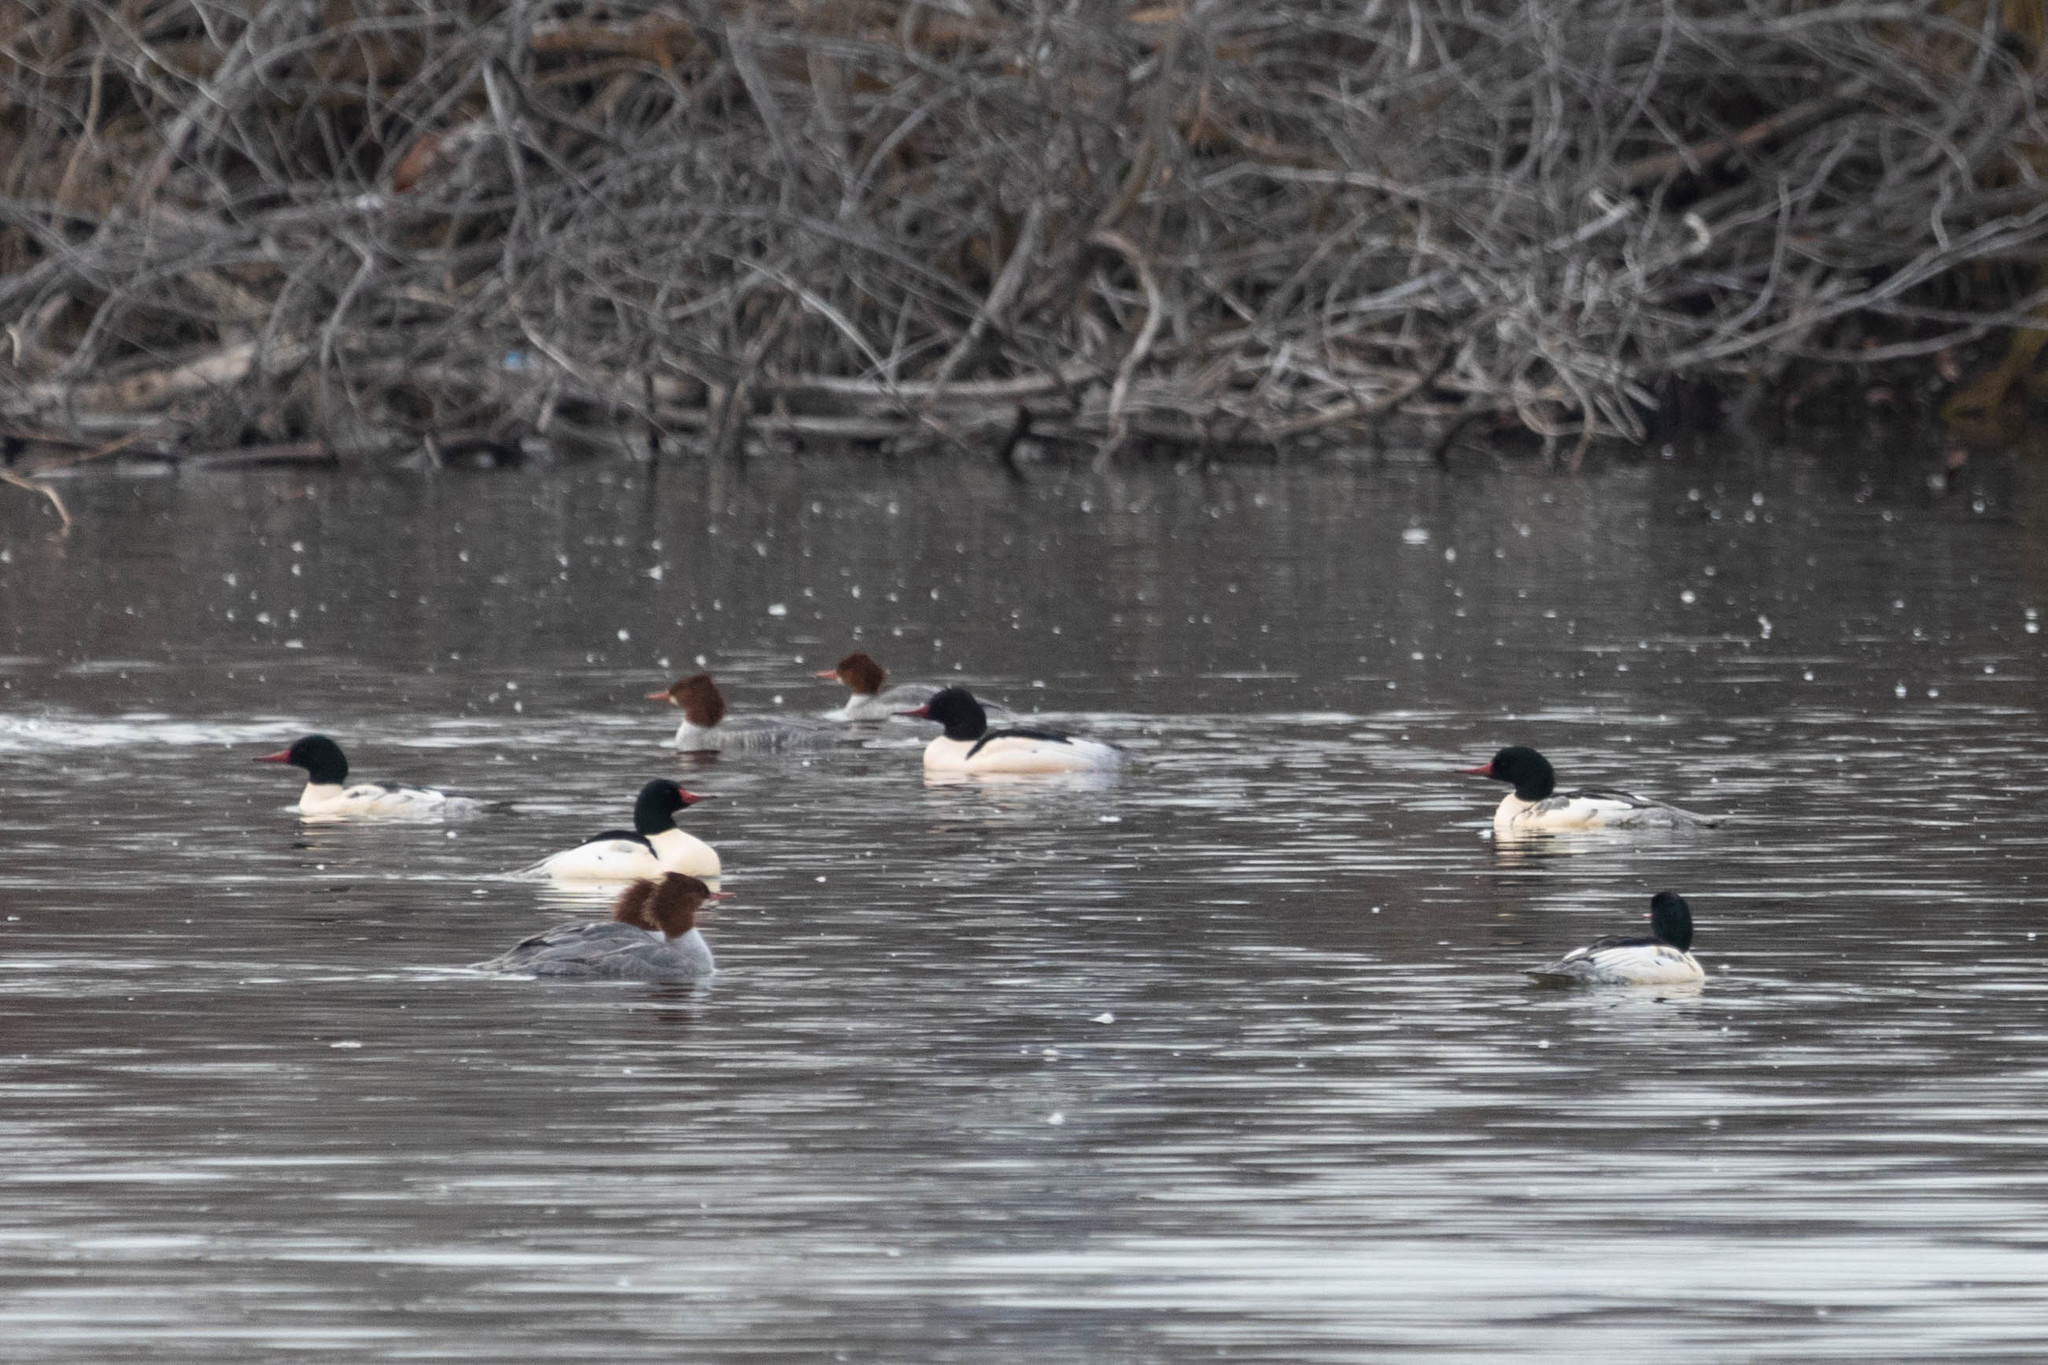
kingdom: Animalia
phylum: Chordata
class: Aves
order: Anseriformes
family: Anatidae
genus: Mergus
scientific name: Mergus merganser
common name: Common merganser
